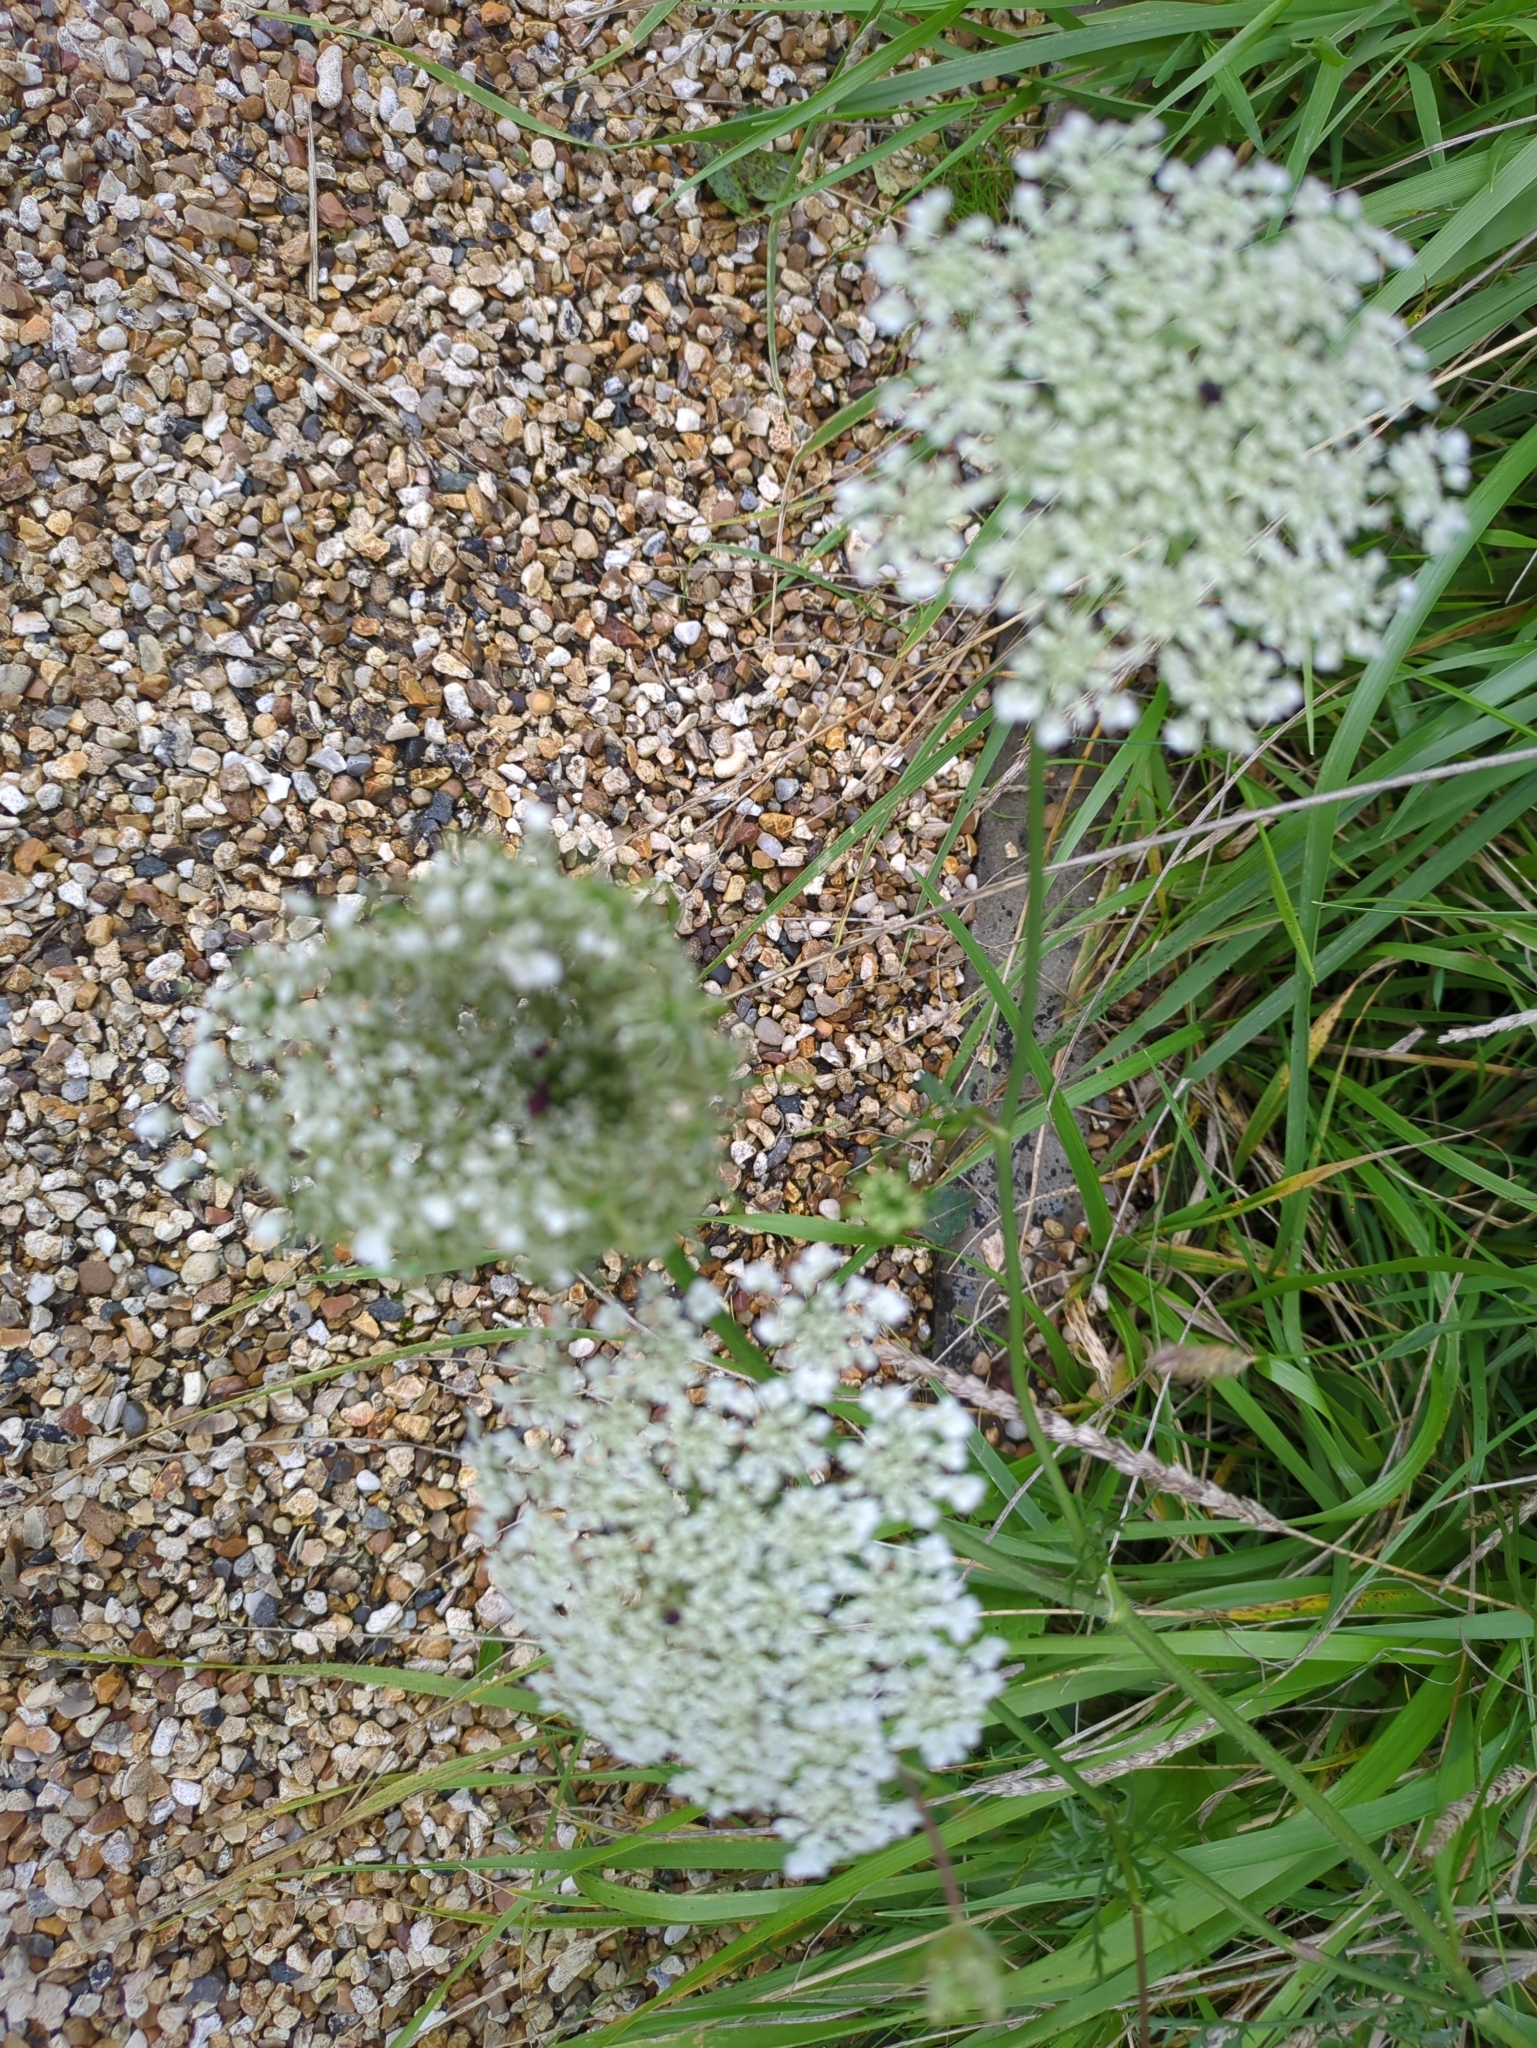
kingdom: Plantae
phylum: Tracheophyta
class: Magnoliopsida
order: Apiales
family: Apiaceae
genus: Daucus
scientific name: Daucus carota
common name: Wild carrot
